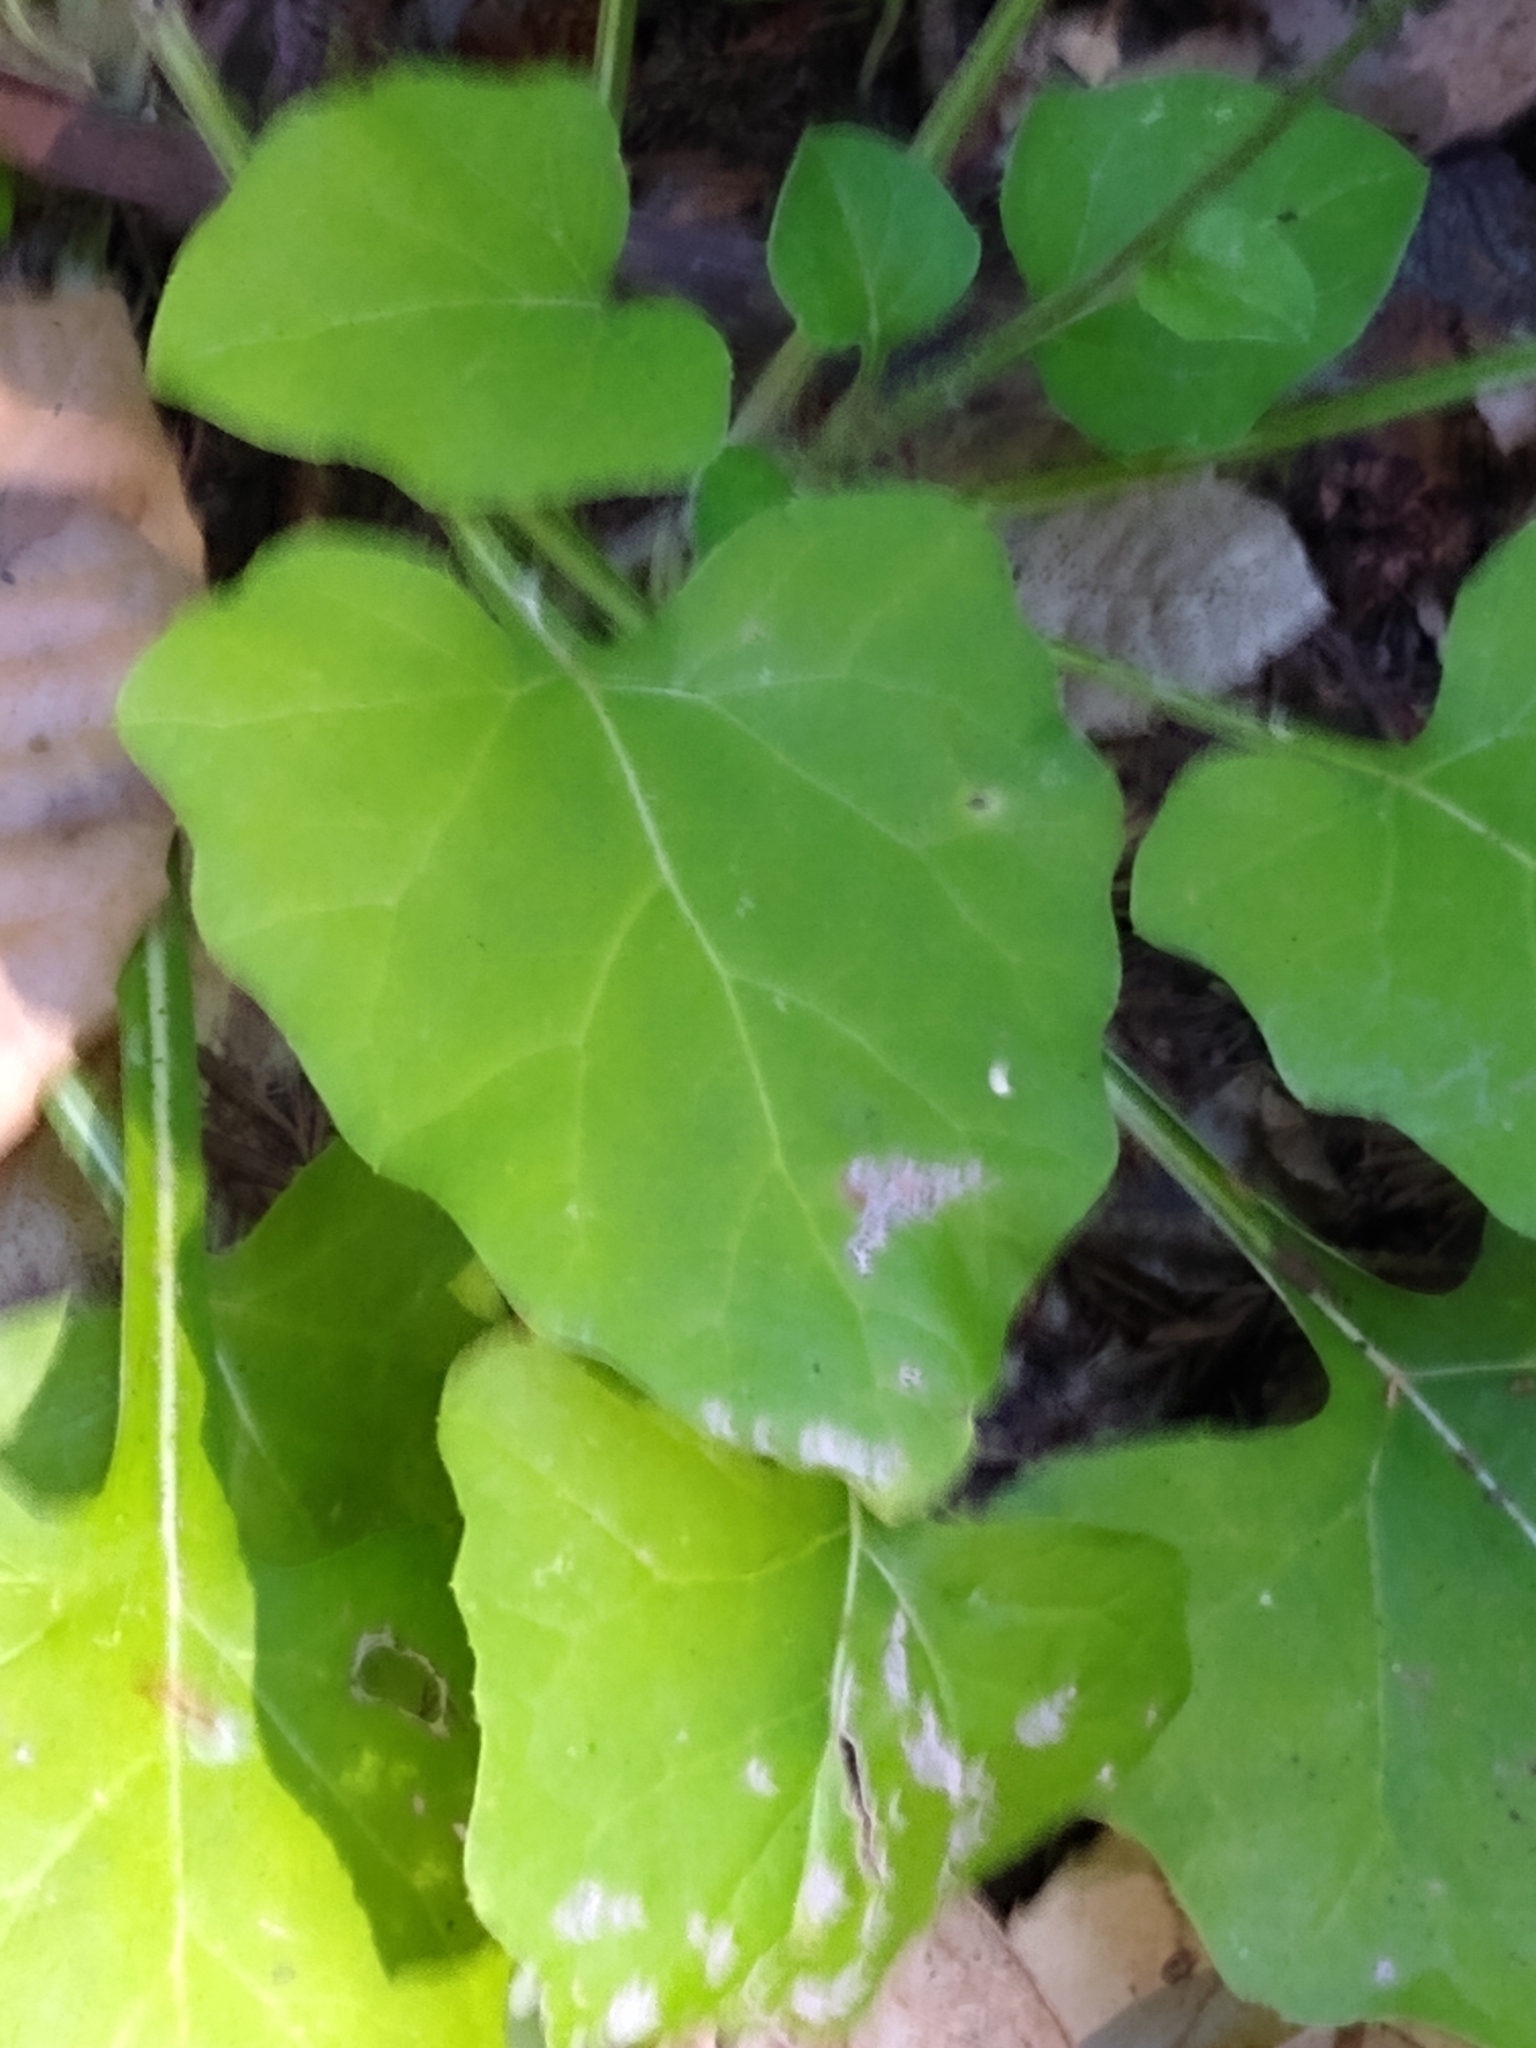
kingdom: Plantae
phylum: Tracheophyta
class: Magnoliopsida
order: Asterales
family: Asteraceae
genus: Adenocaulon
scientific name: Adenocaulon bicolor
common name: Trailplant
